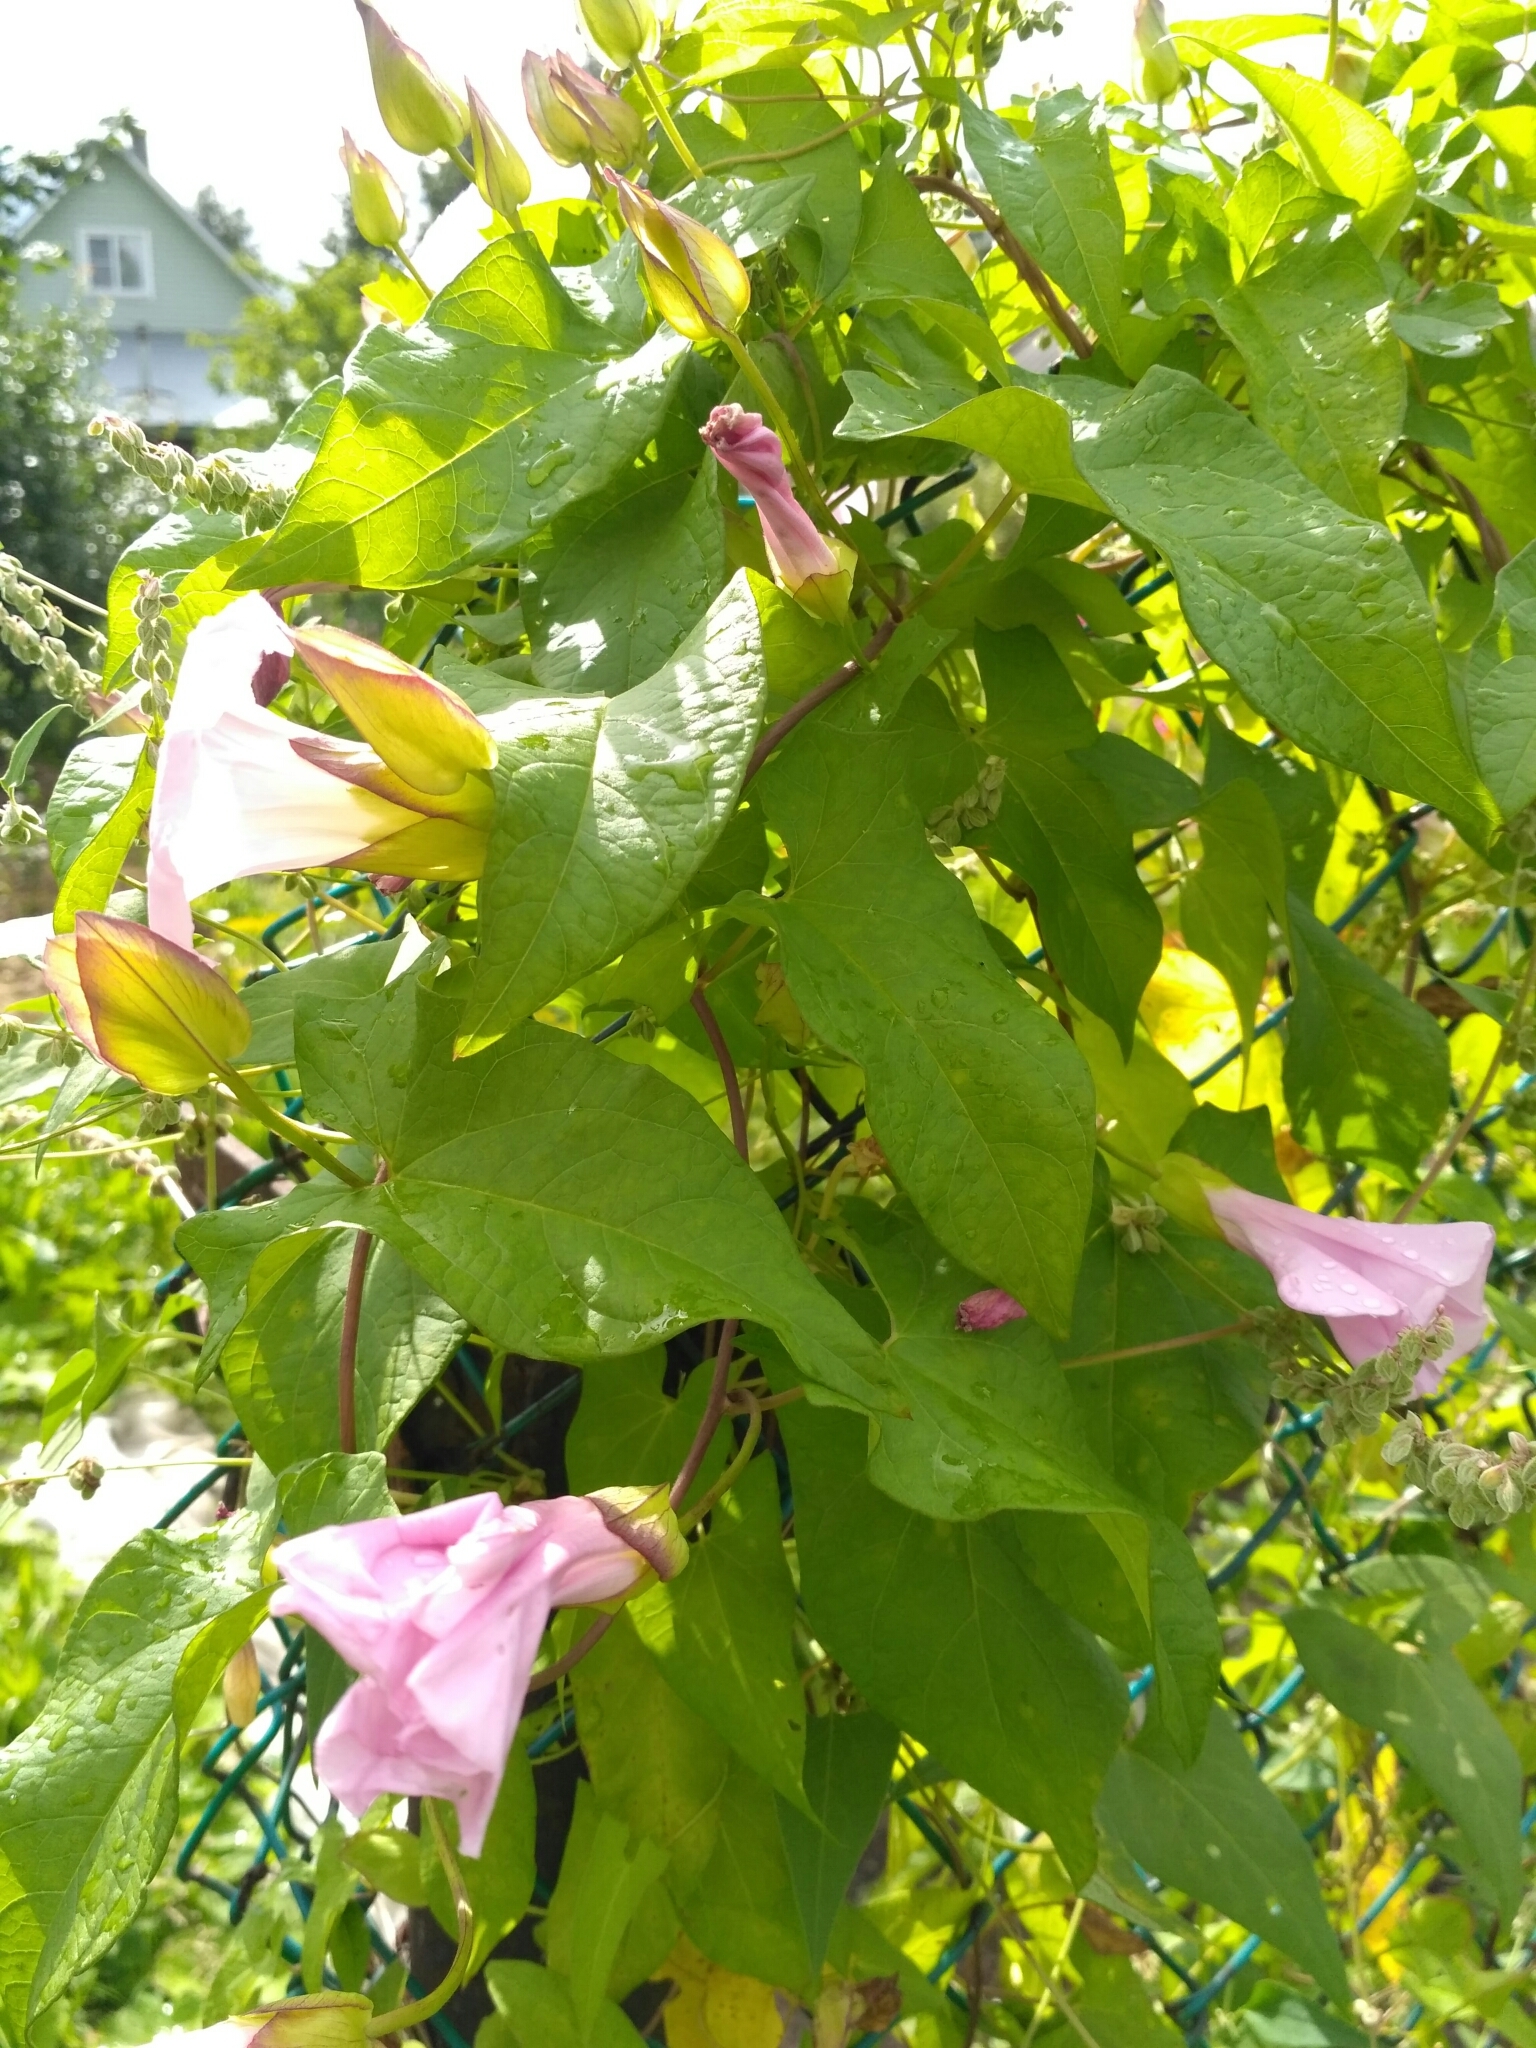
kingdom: Plantae
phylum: Tracheophyta
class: Magnoliopsida
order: Solanales
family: Convolvulaceae
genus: Calystegia
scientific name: Calystegia sepium
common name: Hedge bindweed
